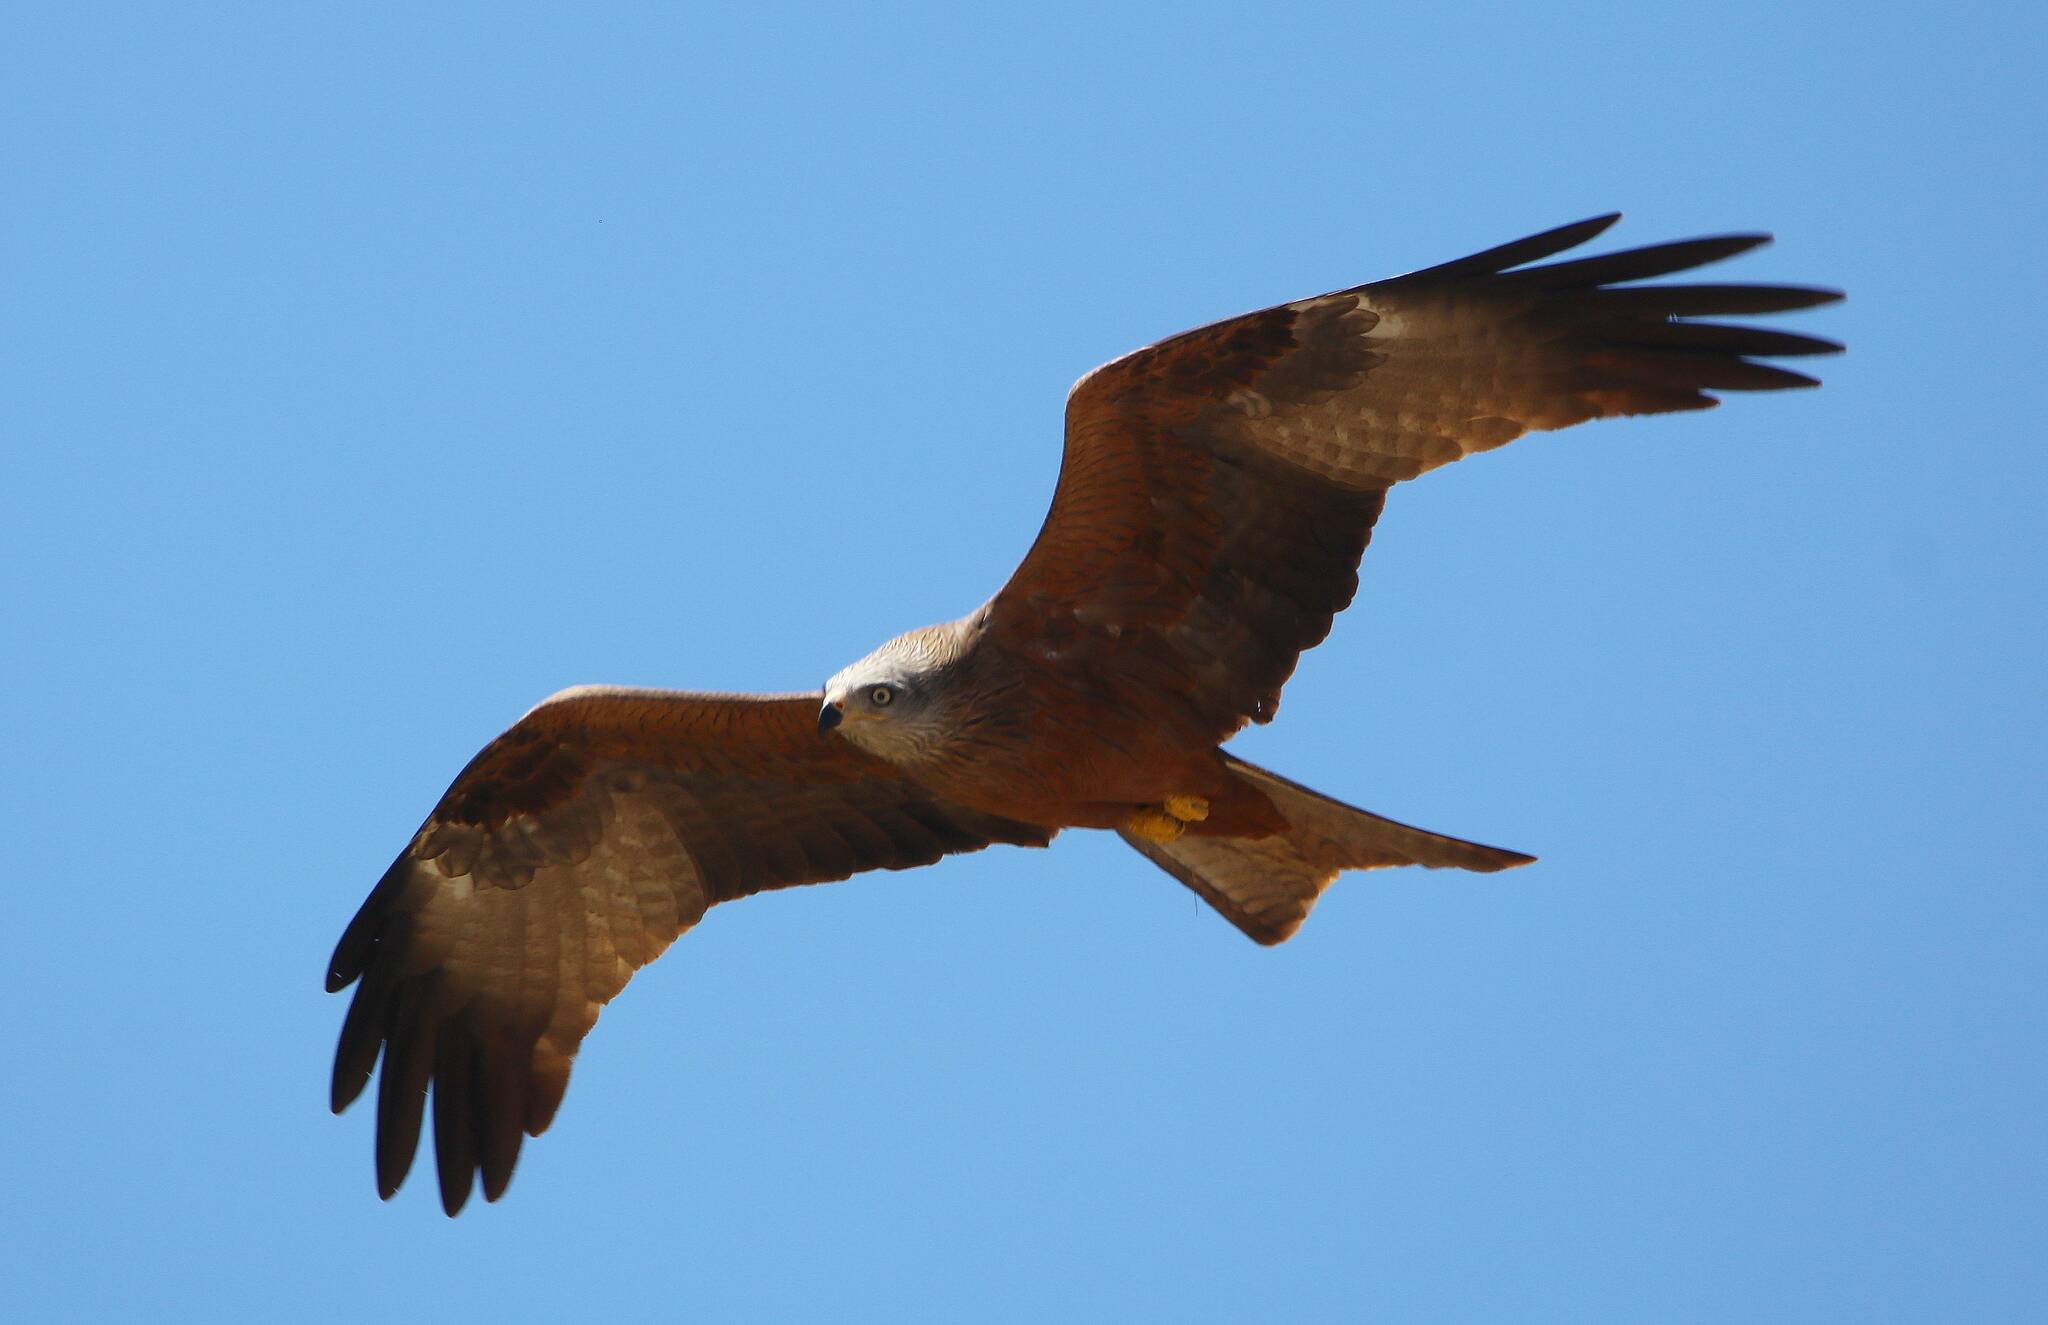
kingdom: Animalia
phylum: Chordata
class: Aves
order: Accipitriformes
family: Accipitridae
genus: Milvus
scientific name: Milvus migrans
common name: Black kite
